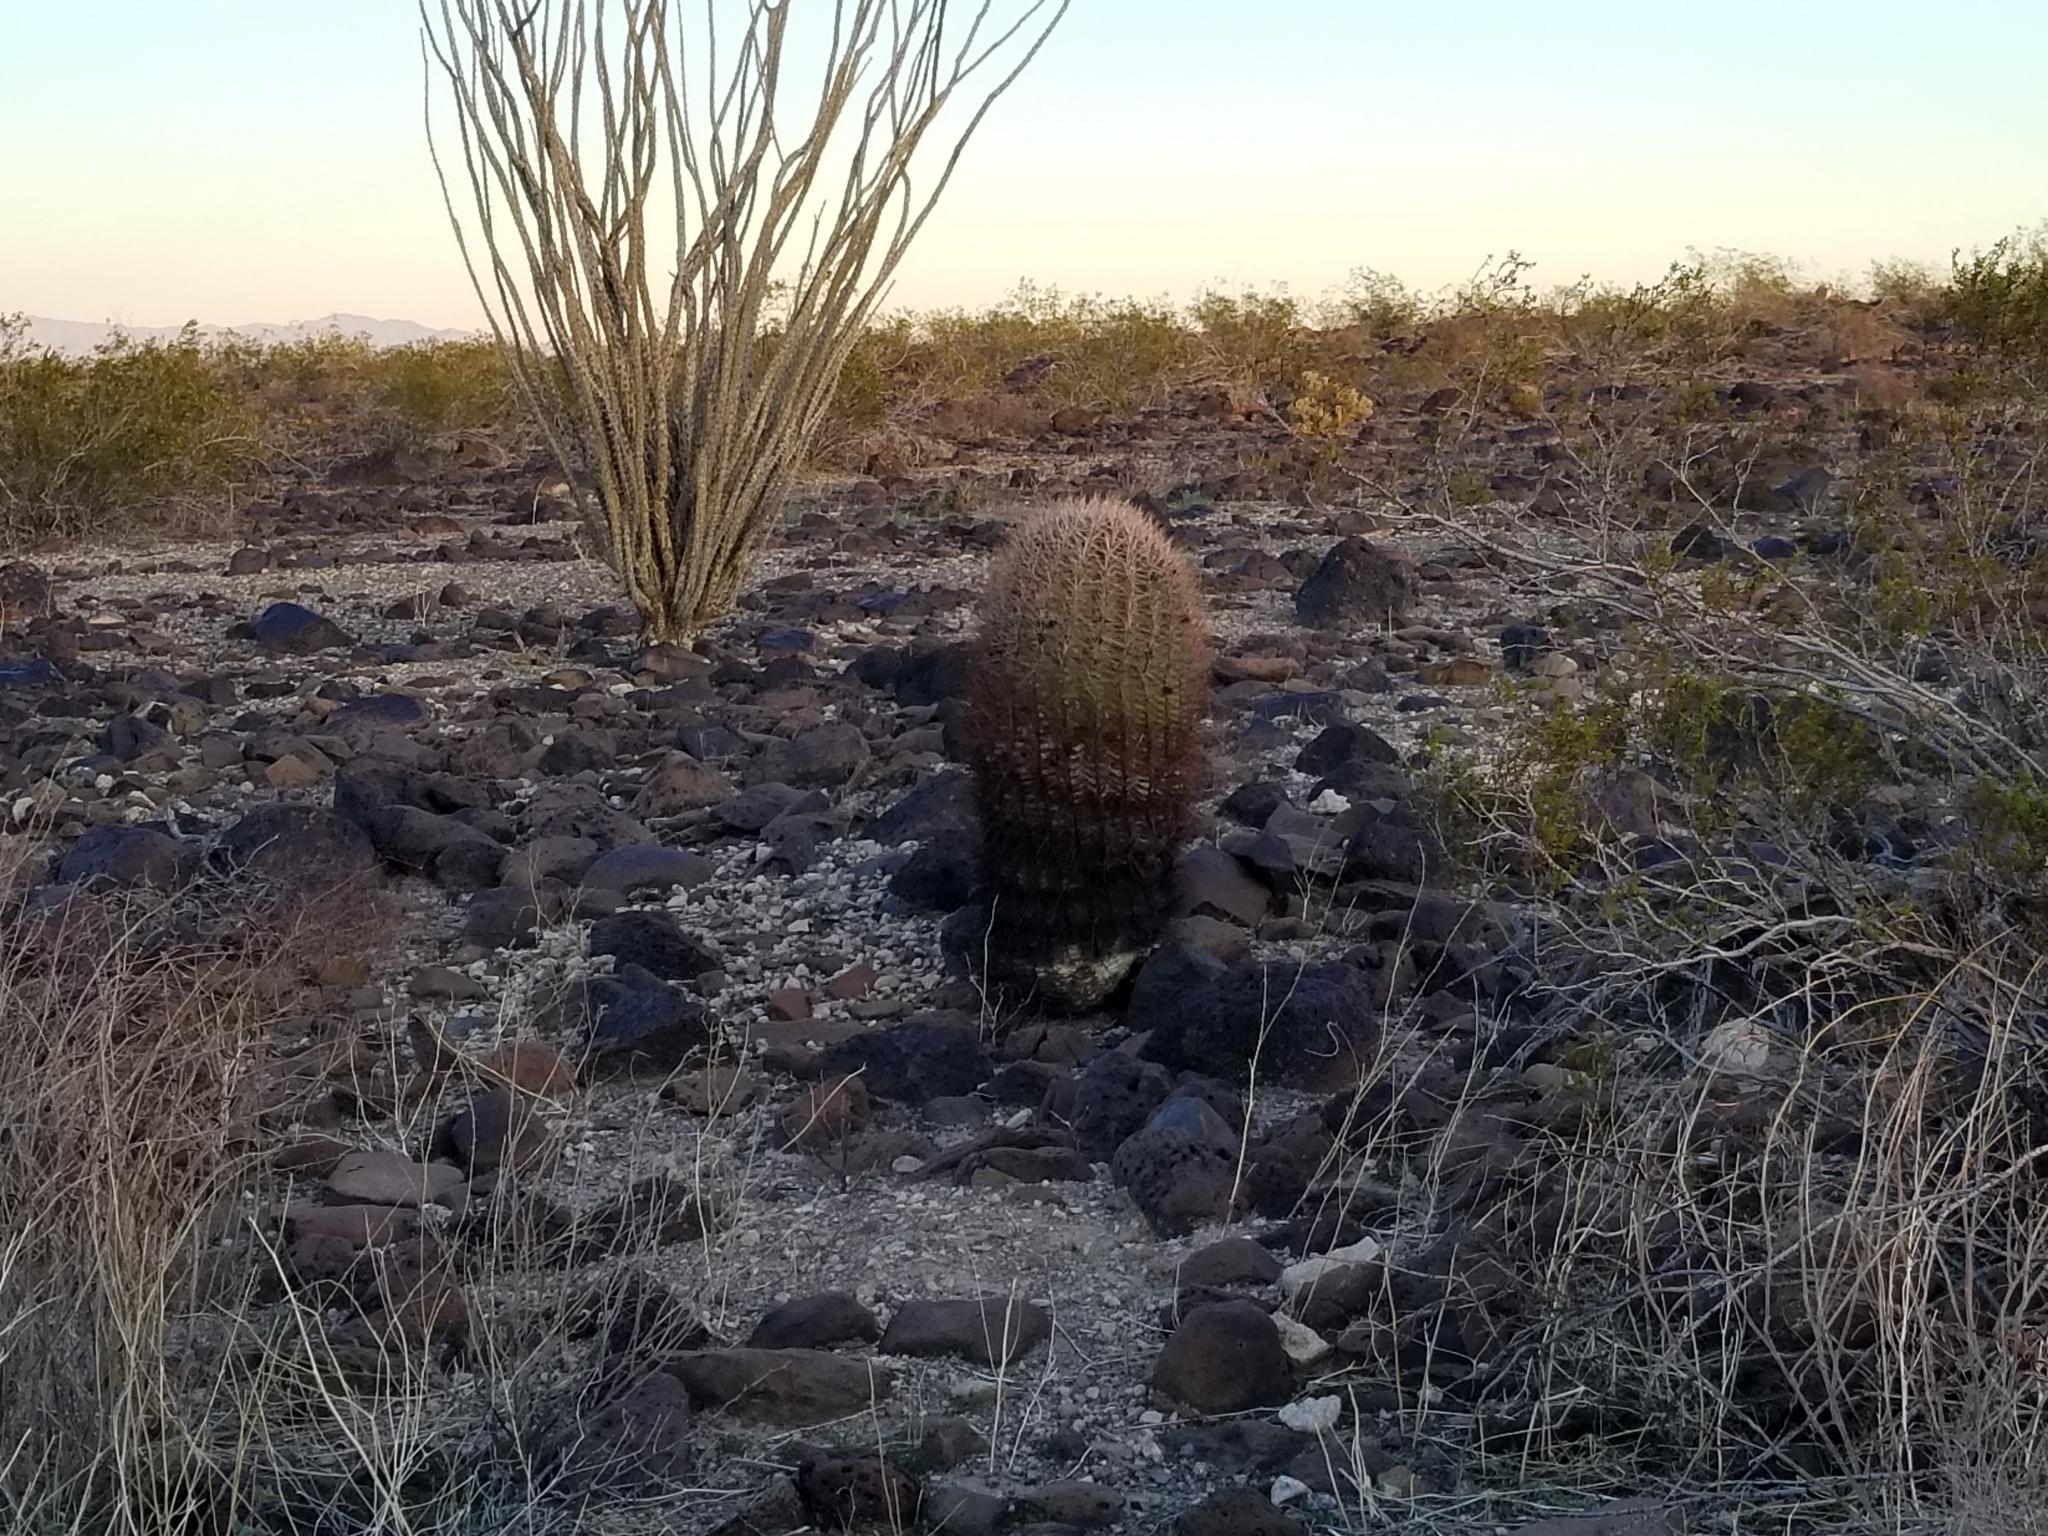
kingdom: Plantae
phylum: Tracheophyta
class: Magnoliopsida
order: Caryophyllales
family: Cactaceae
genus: Ferocactus
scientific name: Ferocactus cylindraceus
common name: California barrel cactus
